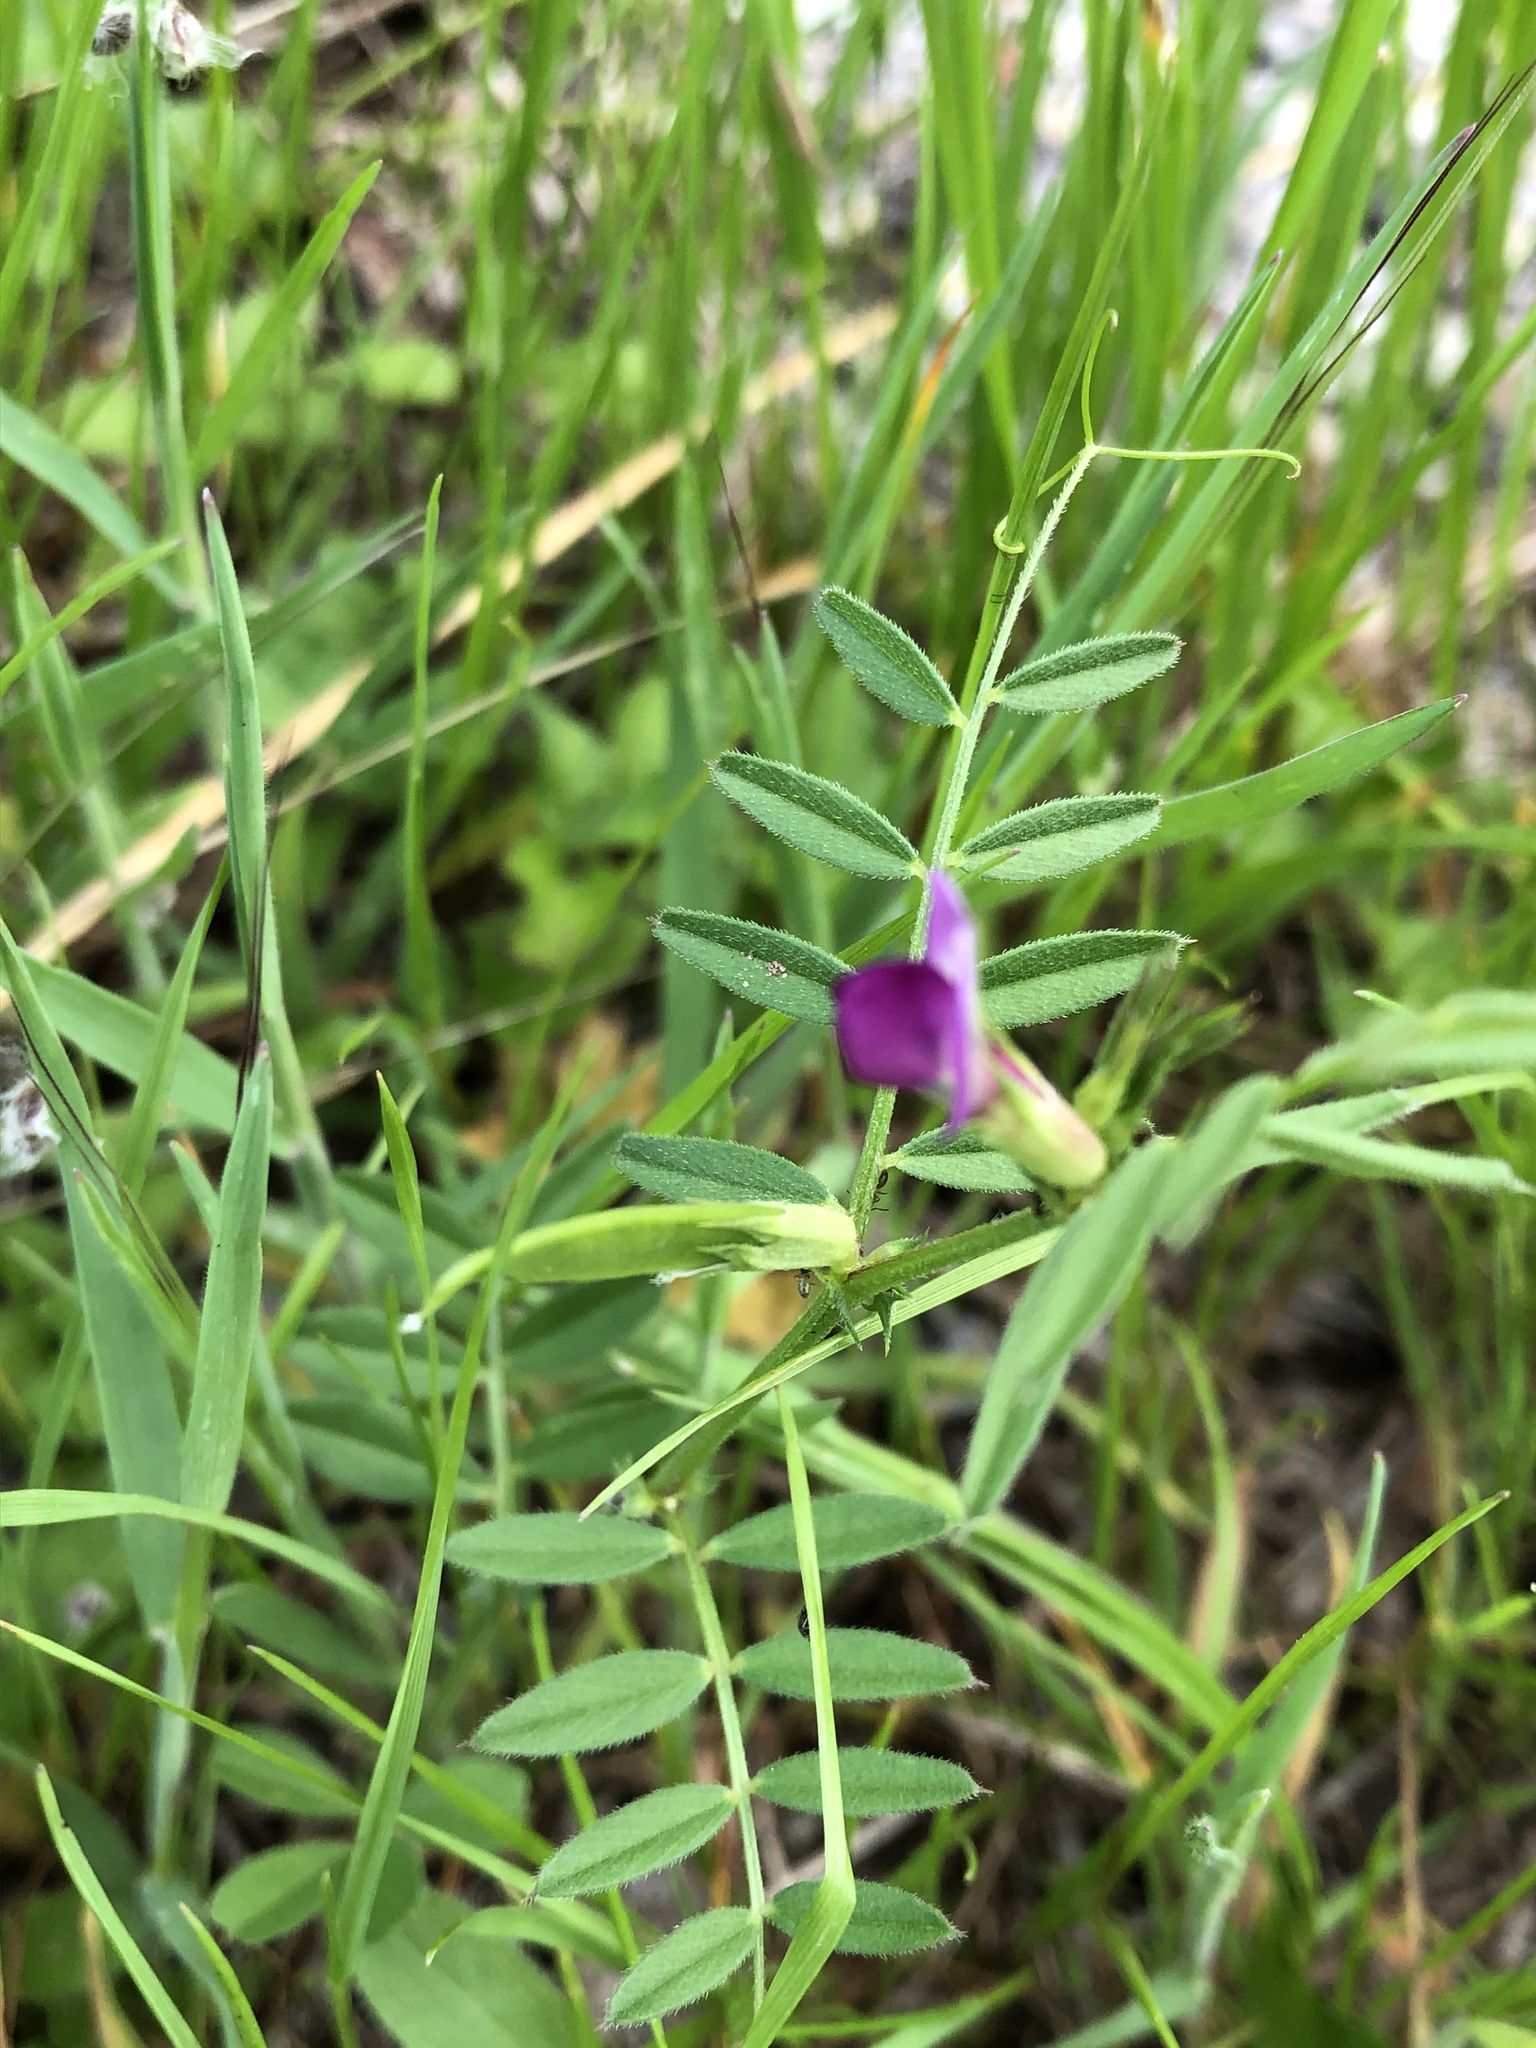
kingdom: Plantae
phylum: Tracheophyta
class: Magnoliopsida
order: Fabales
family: Fabaceae
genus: Vicia
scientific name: Vicia sativa
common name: Garden vetch
